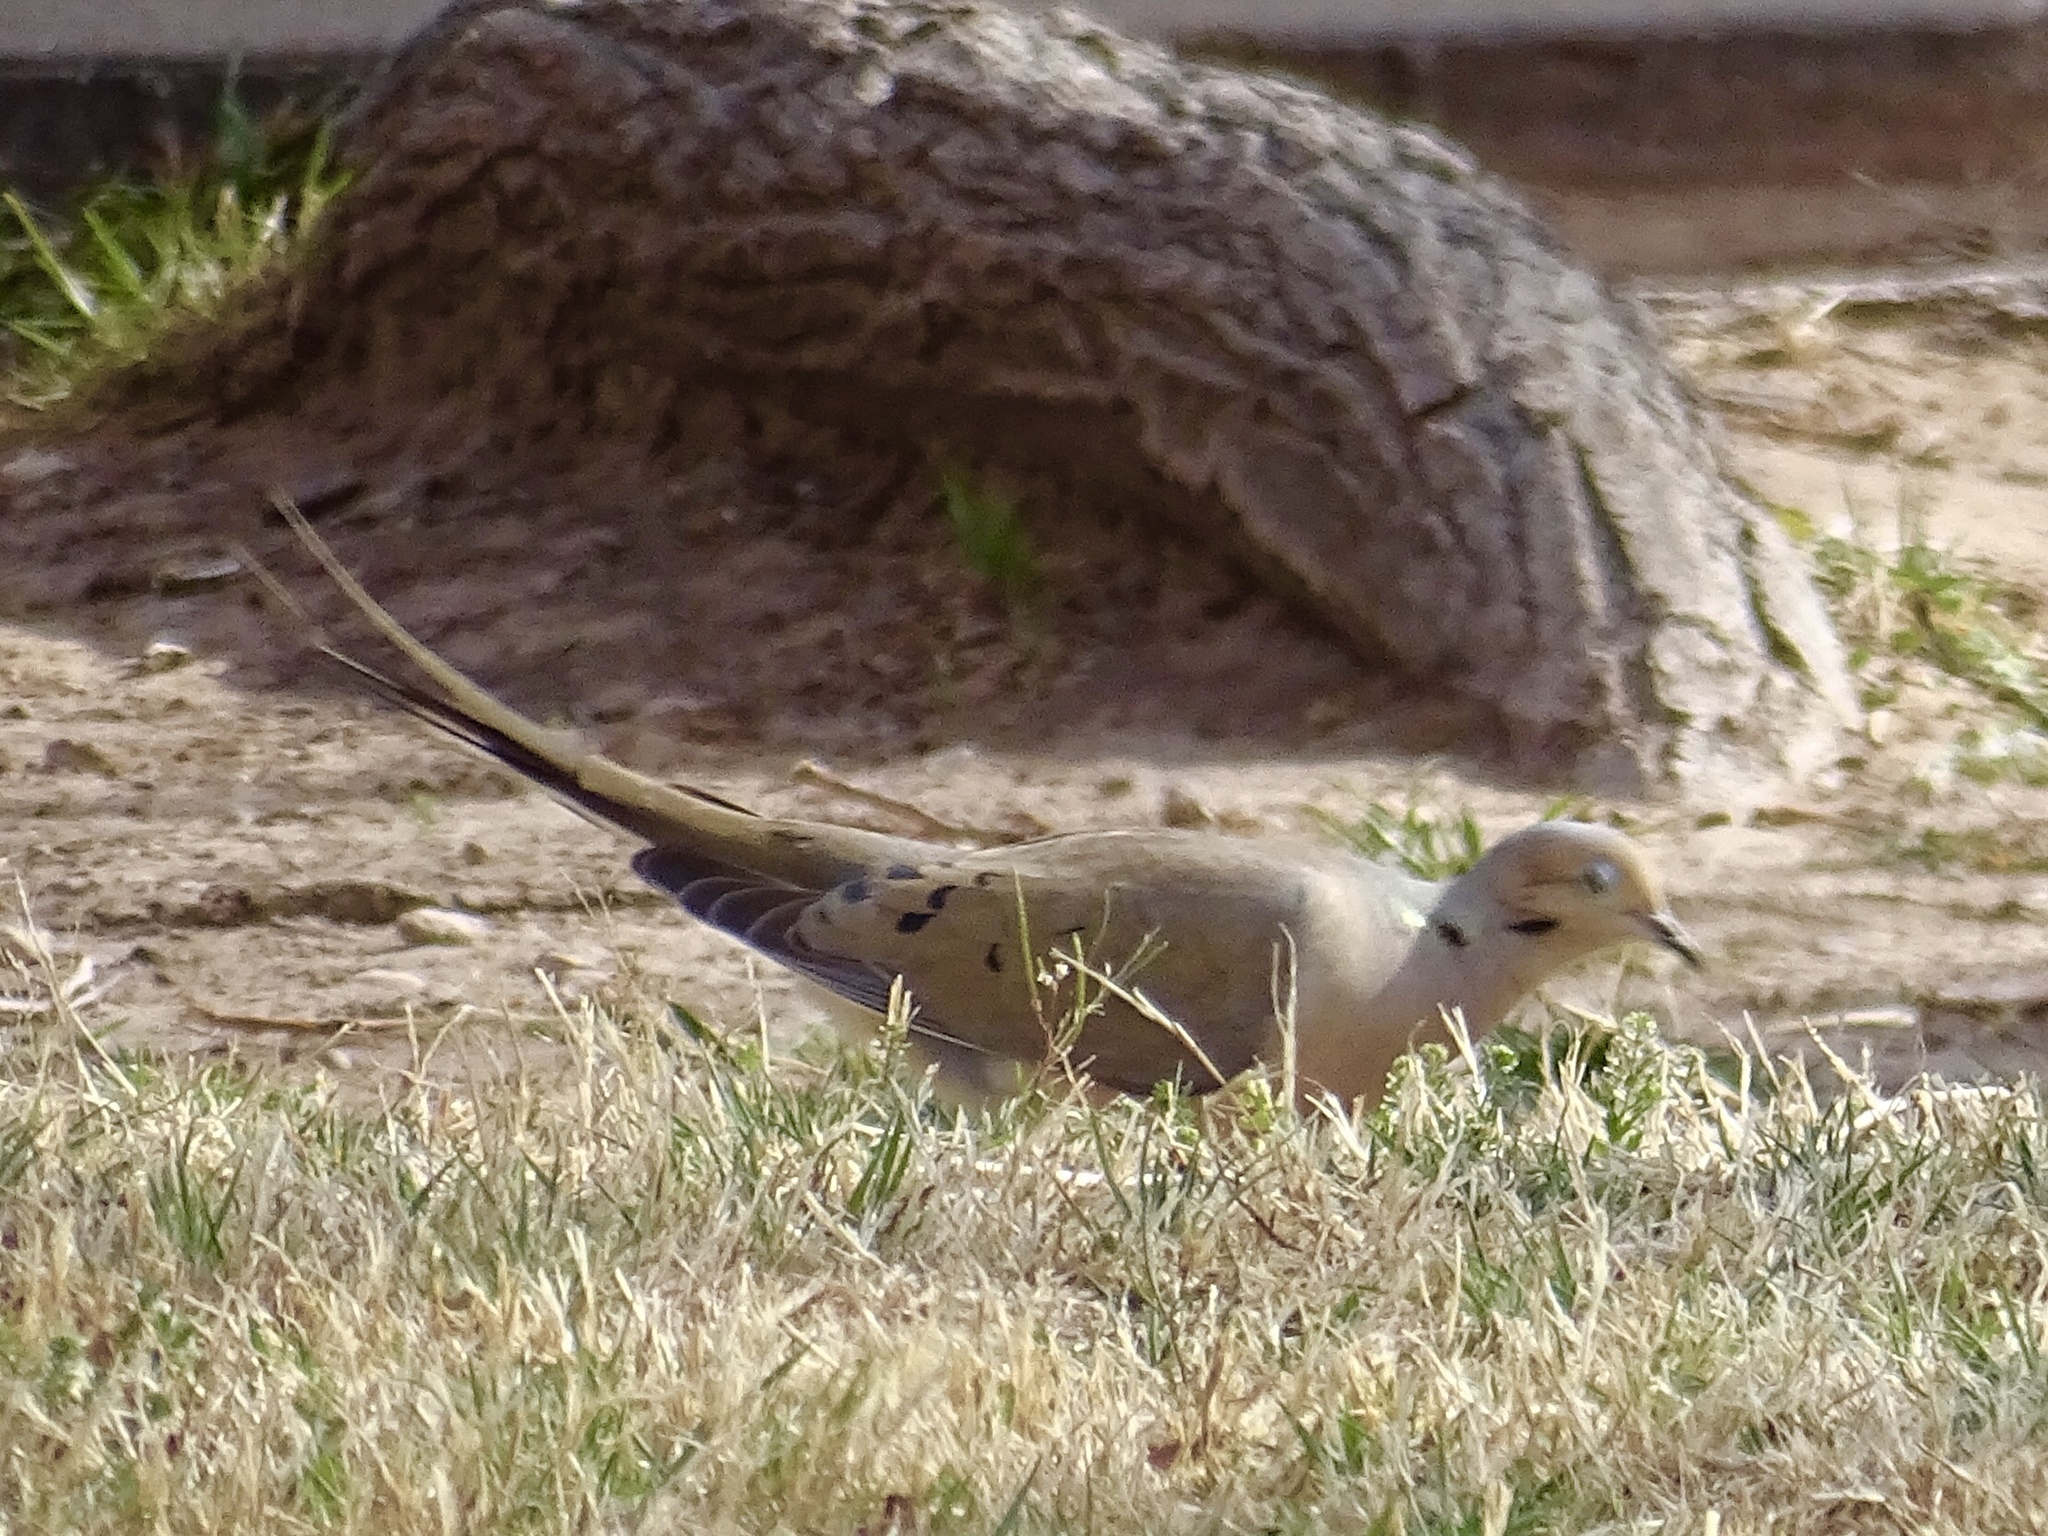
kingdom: Animalia
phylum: Chordata
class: Aves
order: Columbiformes
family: Columbidae
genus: Zenaida
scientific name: Zenaida macroura
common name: Mourning dove
